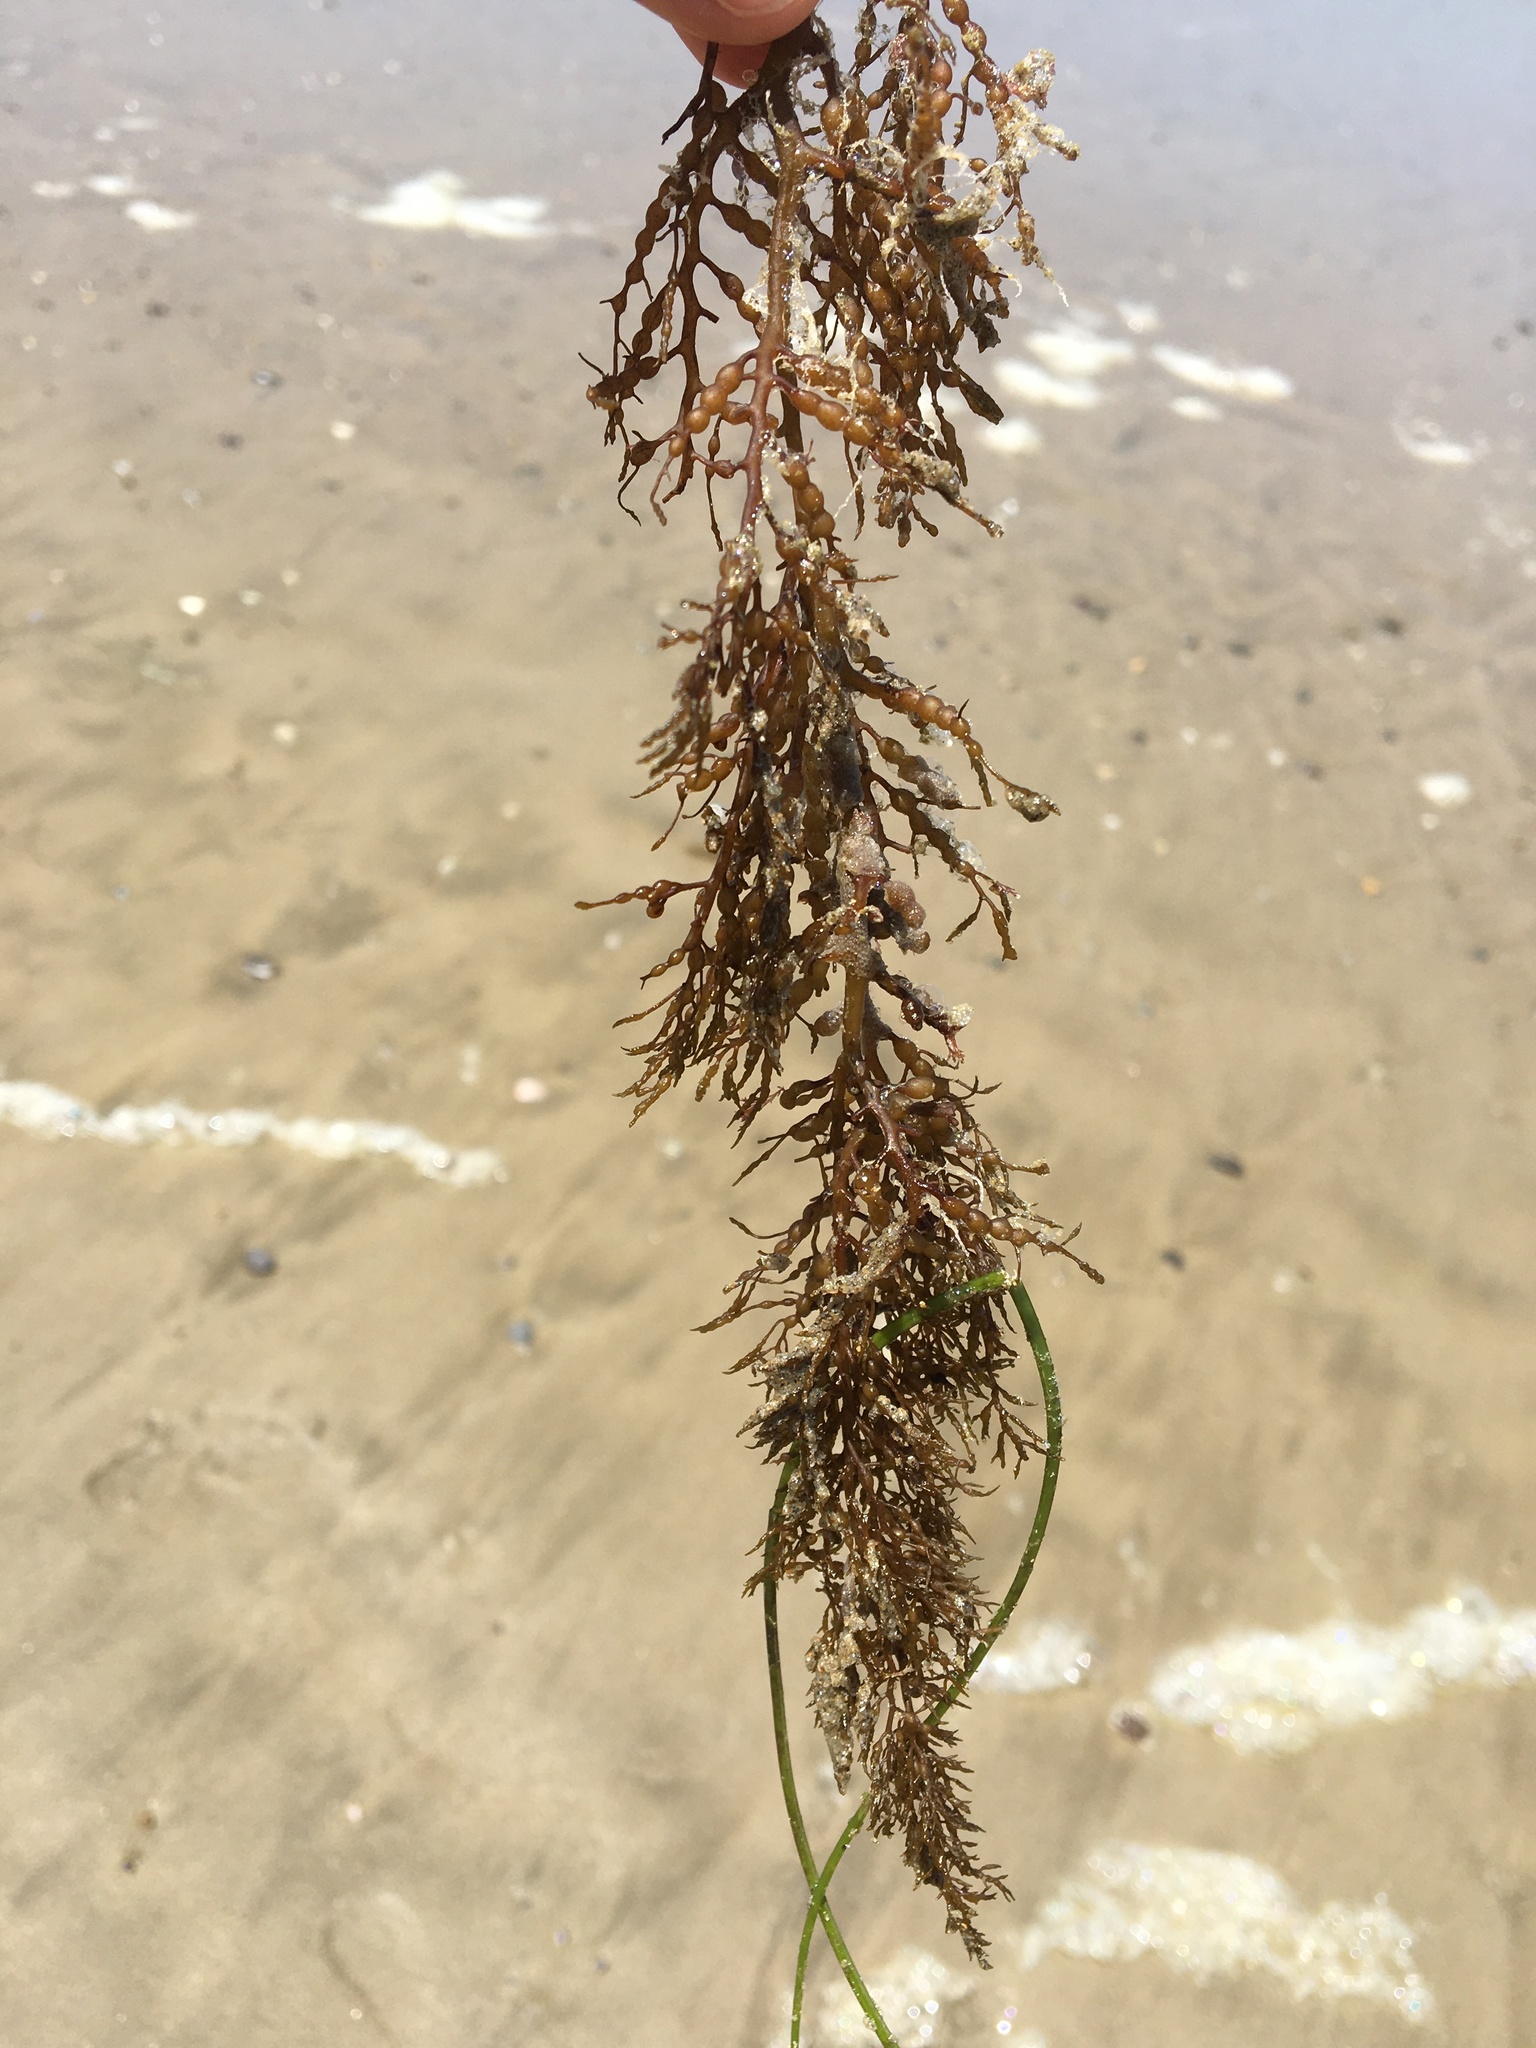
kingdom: Chromista
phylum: Ochrophyta
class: Phaeophyceae
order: Fucales
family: Sargassaceae
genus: Stephanocystis
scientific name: Stephanocystis
